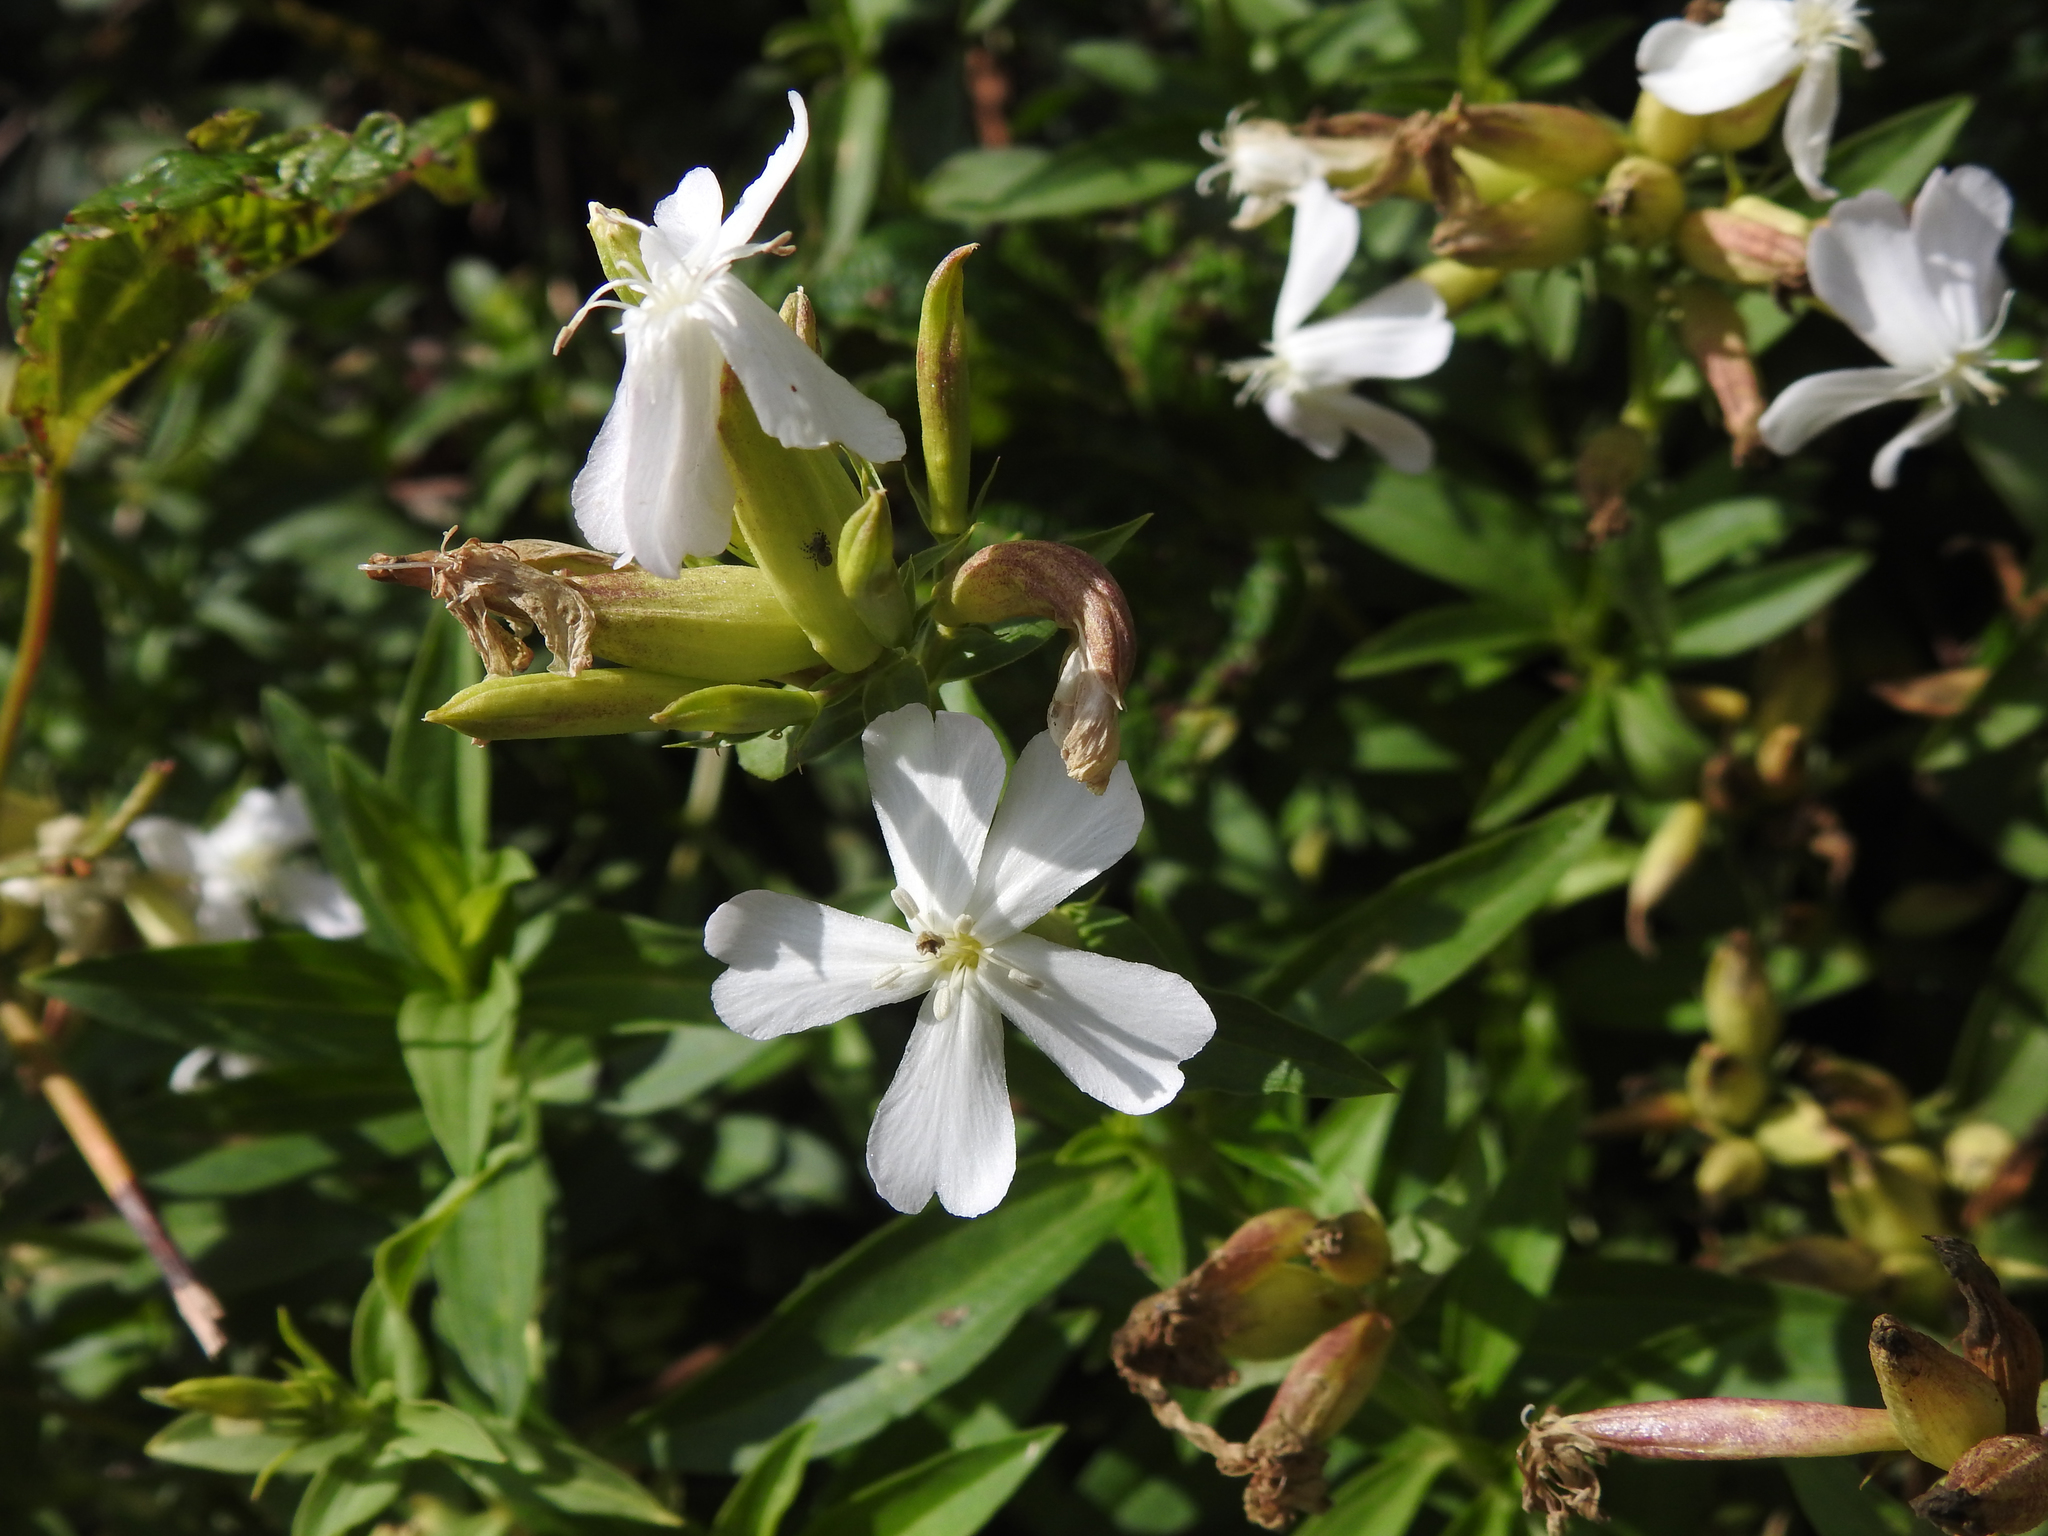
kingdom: Plantae
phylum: Tracheophyta
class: Magnoliopsida
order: Caryophyllales
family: Caryophyllaceae
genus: Saponaria
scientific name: Saponaria officinalis
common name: Soapwort
